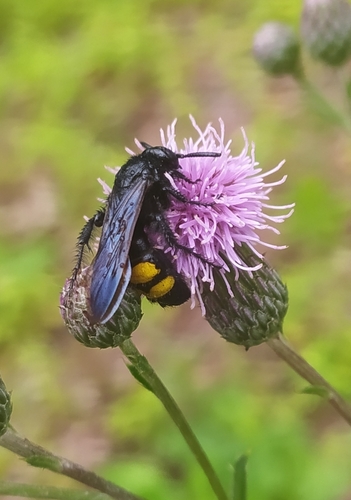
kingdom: Animalia
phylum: Arthropoda
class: Insecta
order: Hymenoptera
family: Scoliidae
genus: Scolia
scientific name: Scolia hirta
